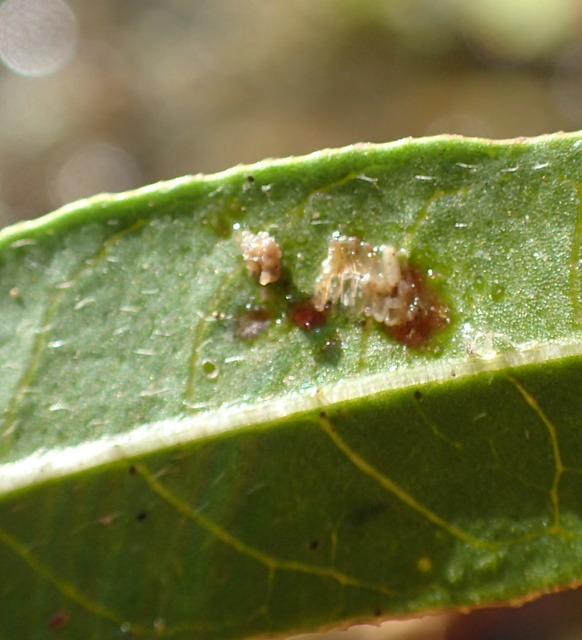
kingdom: Animalia
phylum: Arthropoda
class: Insecta
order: Coleoptera
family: Chrysomelidae
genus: Agasicles
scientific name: Agasicles hygrophila
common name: Alligatorweed flea beetle
